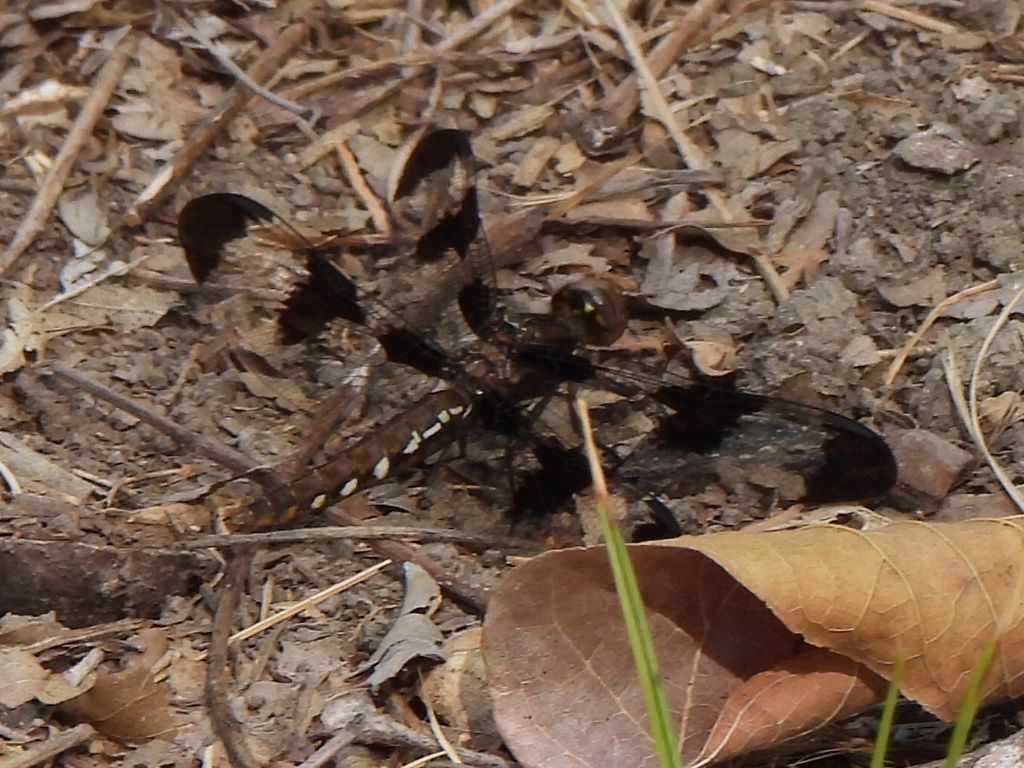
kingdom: Animalia
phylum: Arthropoda
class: Insecta
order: Odonata
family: Libellulidae
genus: Plathemis
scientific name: Plathemis lydia
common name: Common whitetail
